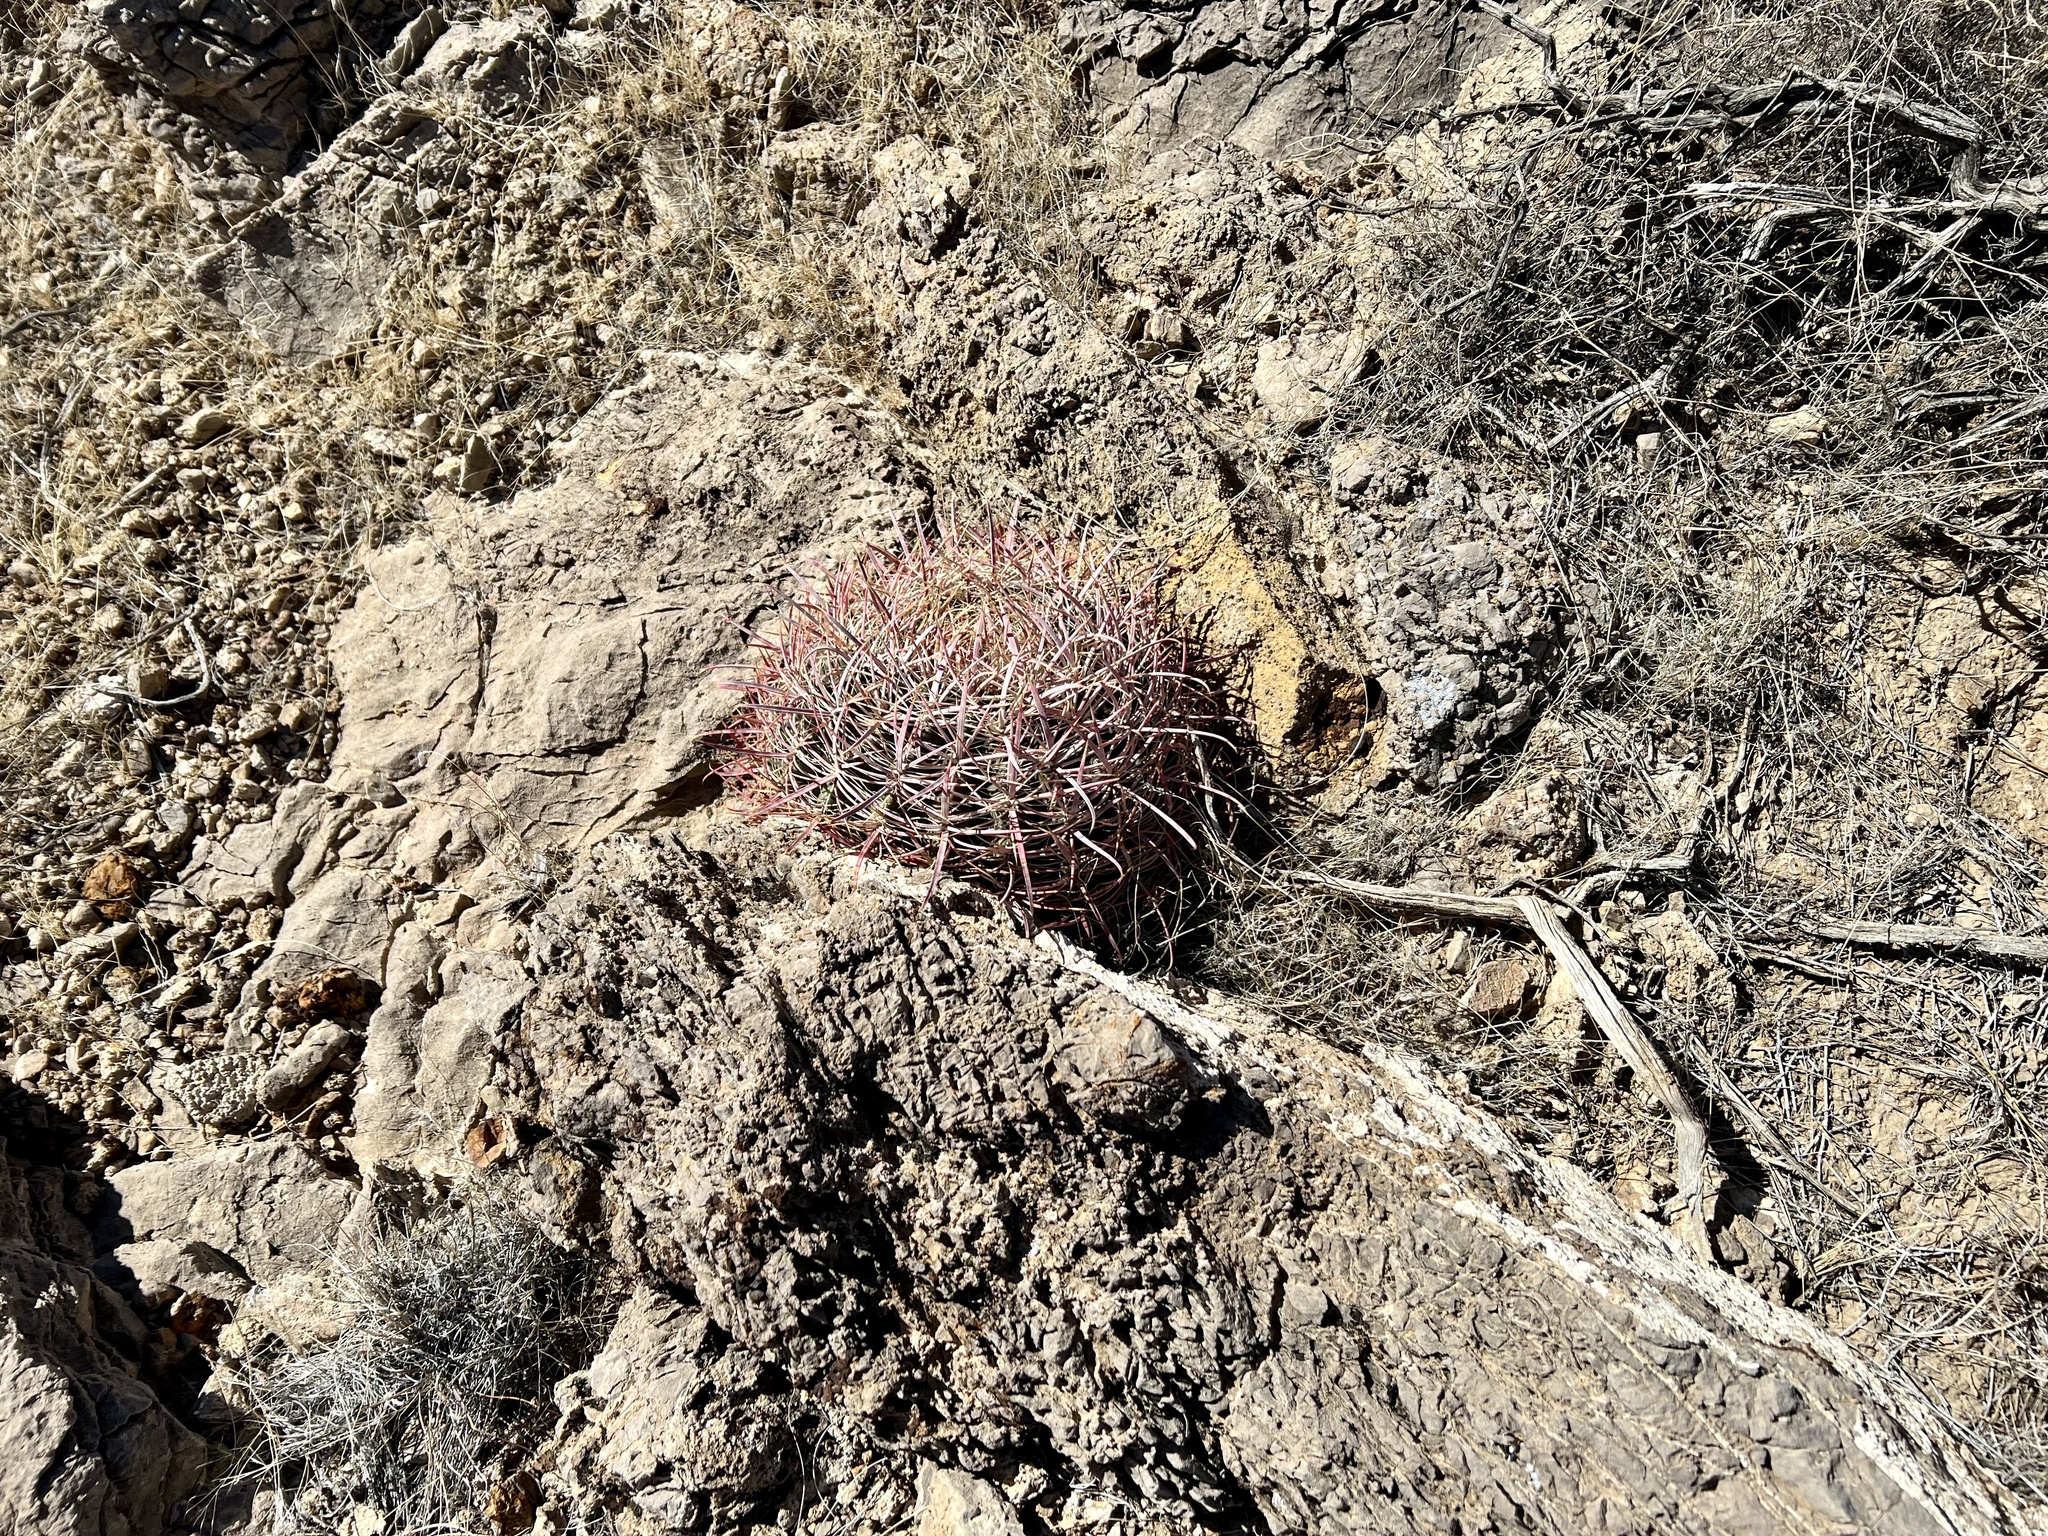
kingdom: Plantae
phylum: Tracheophyta
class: Magnoliopsida
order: Caryophyllales
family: Cactaceae
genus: Ferocactus
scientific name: Ferocactus cylindraceus
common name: California barrel cactus
